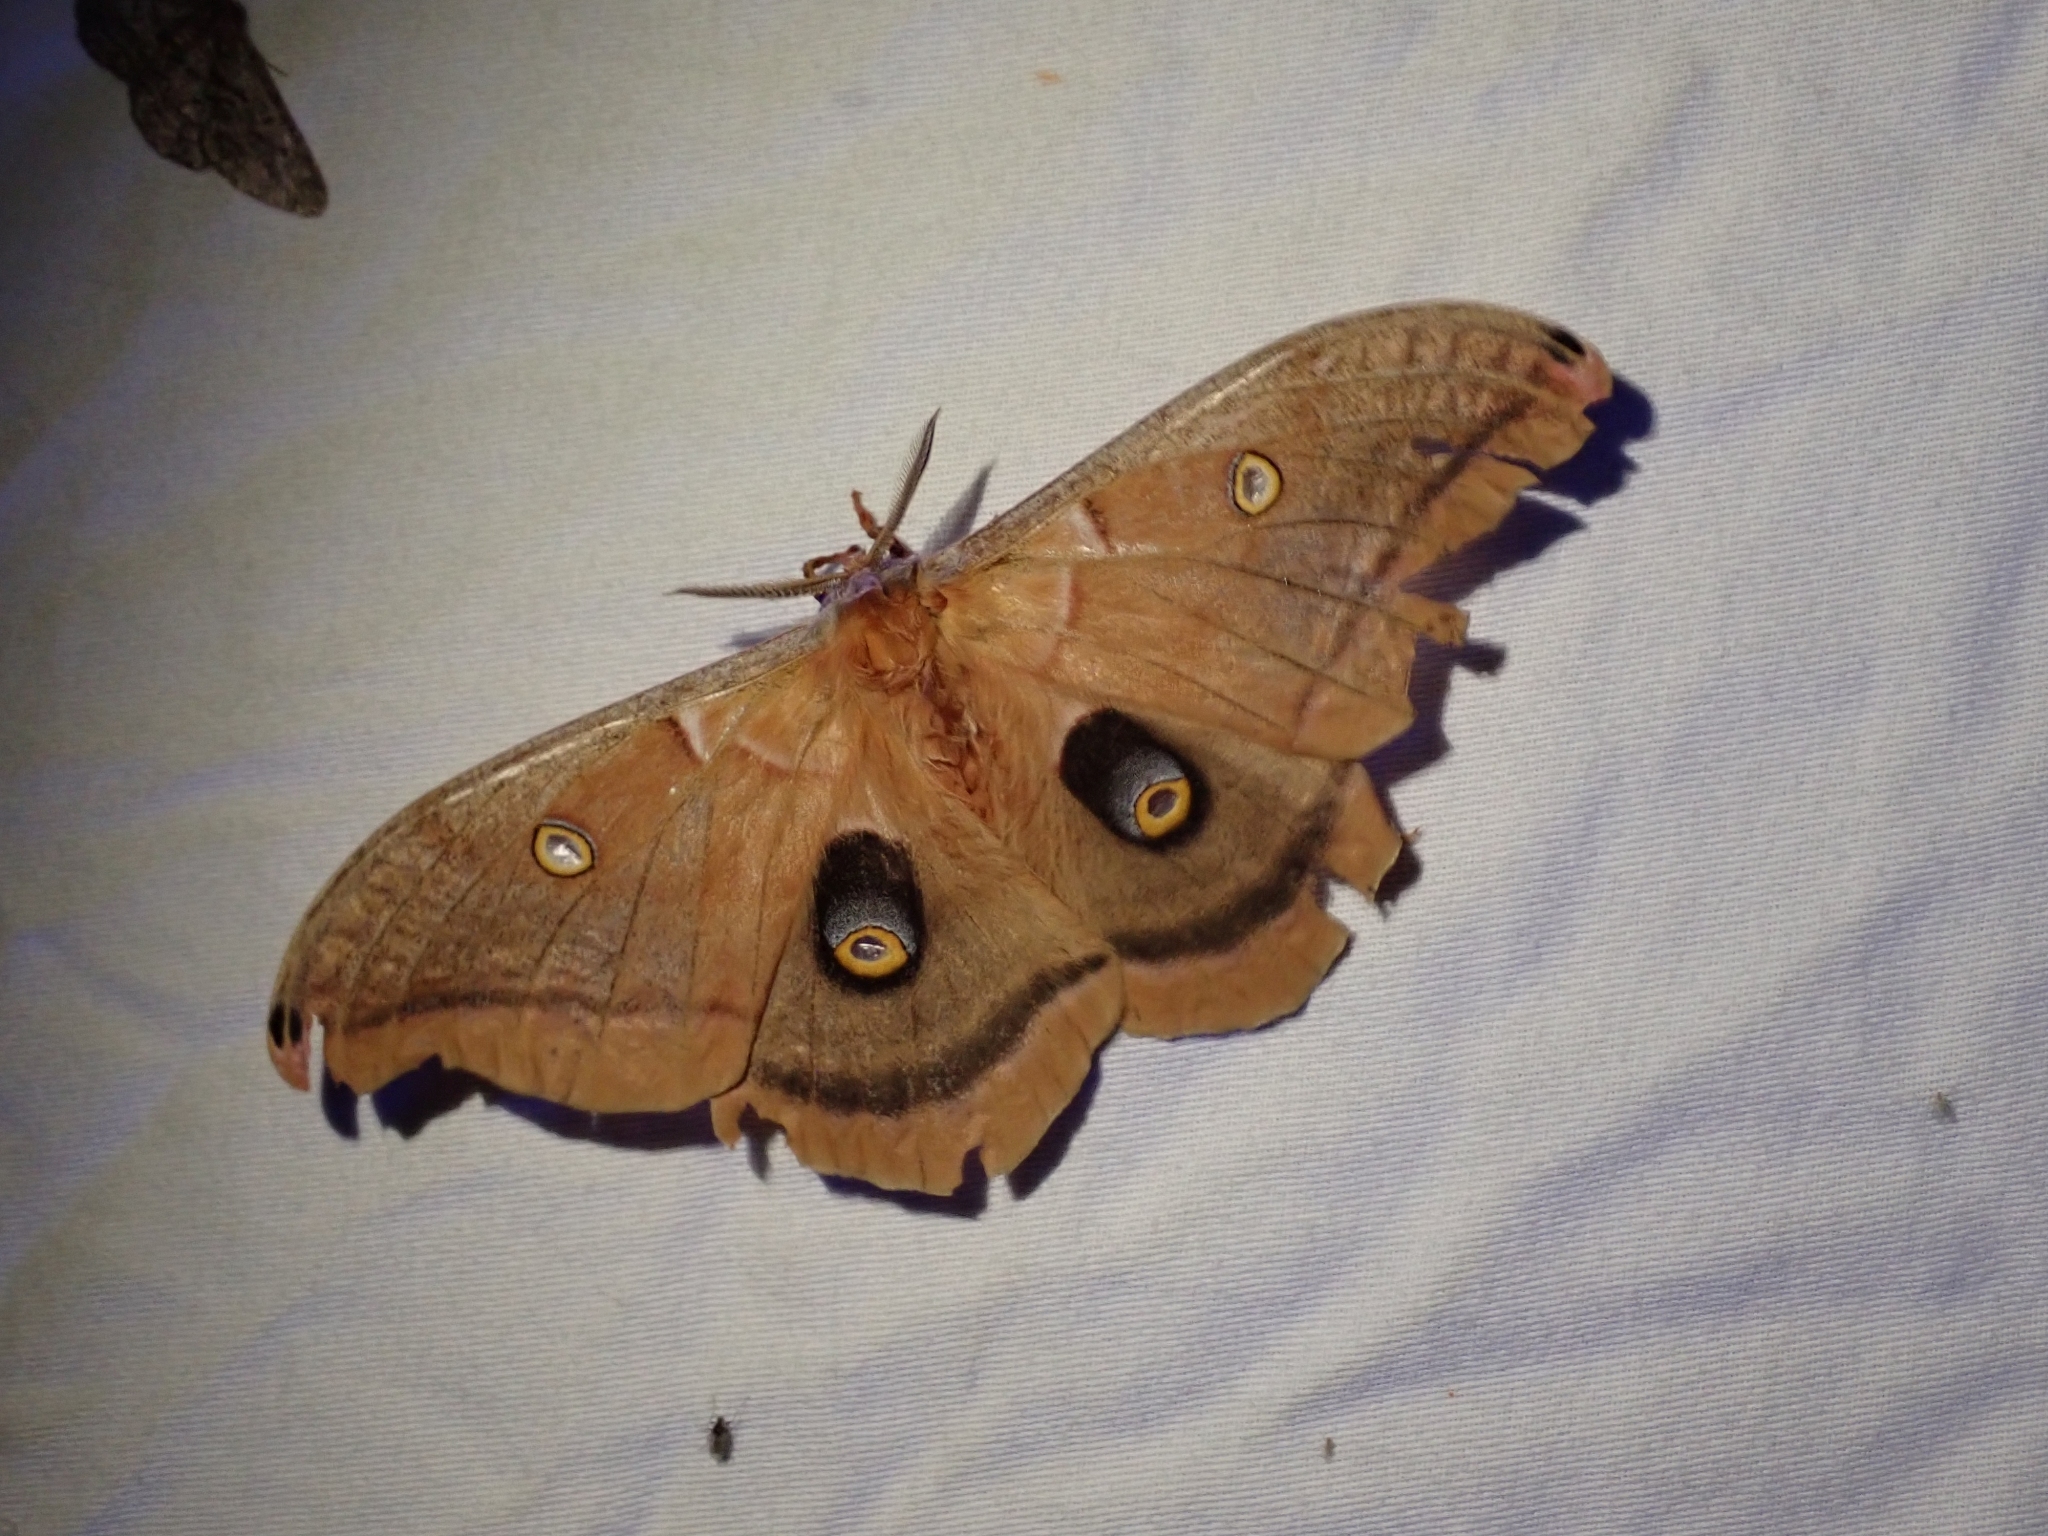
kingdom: Animalia
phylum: Arthropoda
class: Insecta
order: Lepidoptera
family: Saturniidae
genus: Antheraea
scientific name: Antheraea polyphemus
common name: Polyphemus moth
